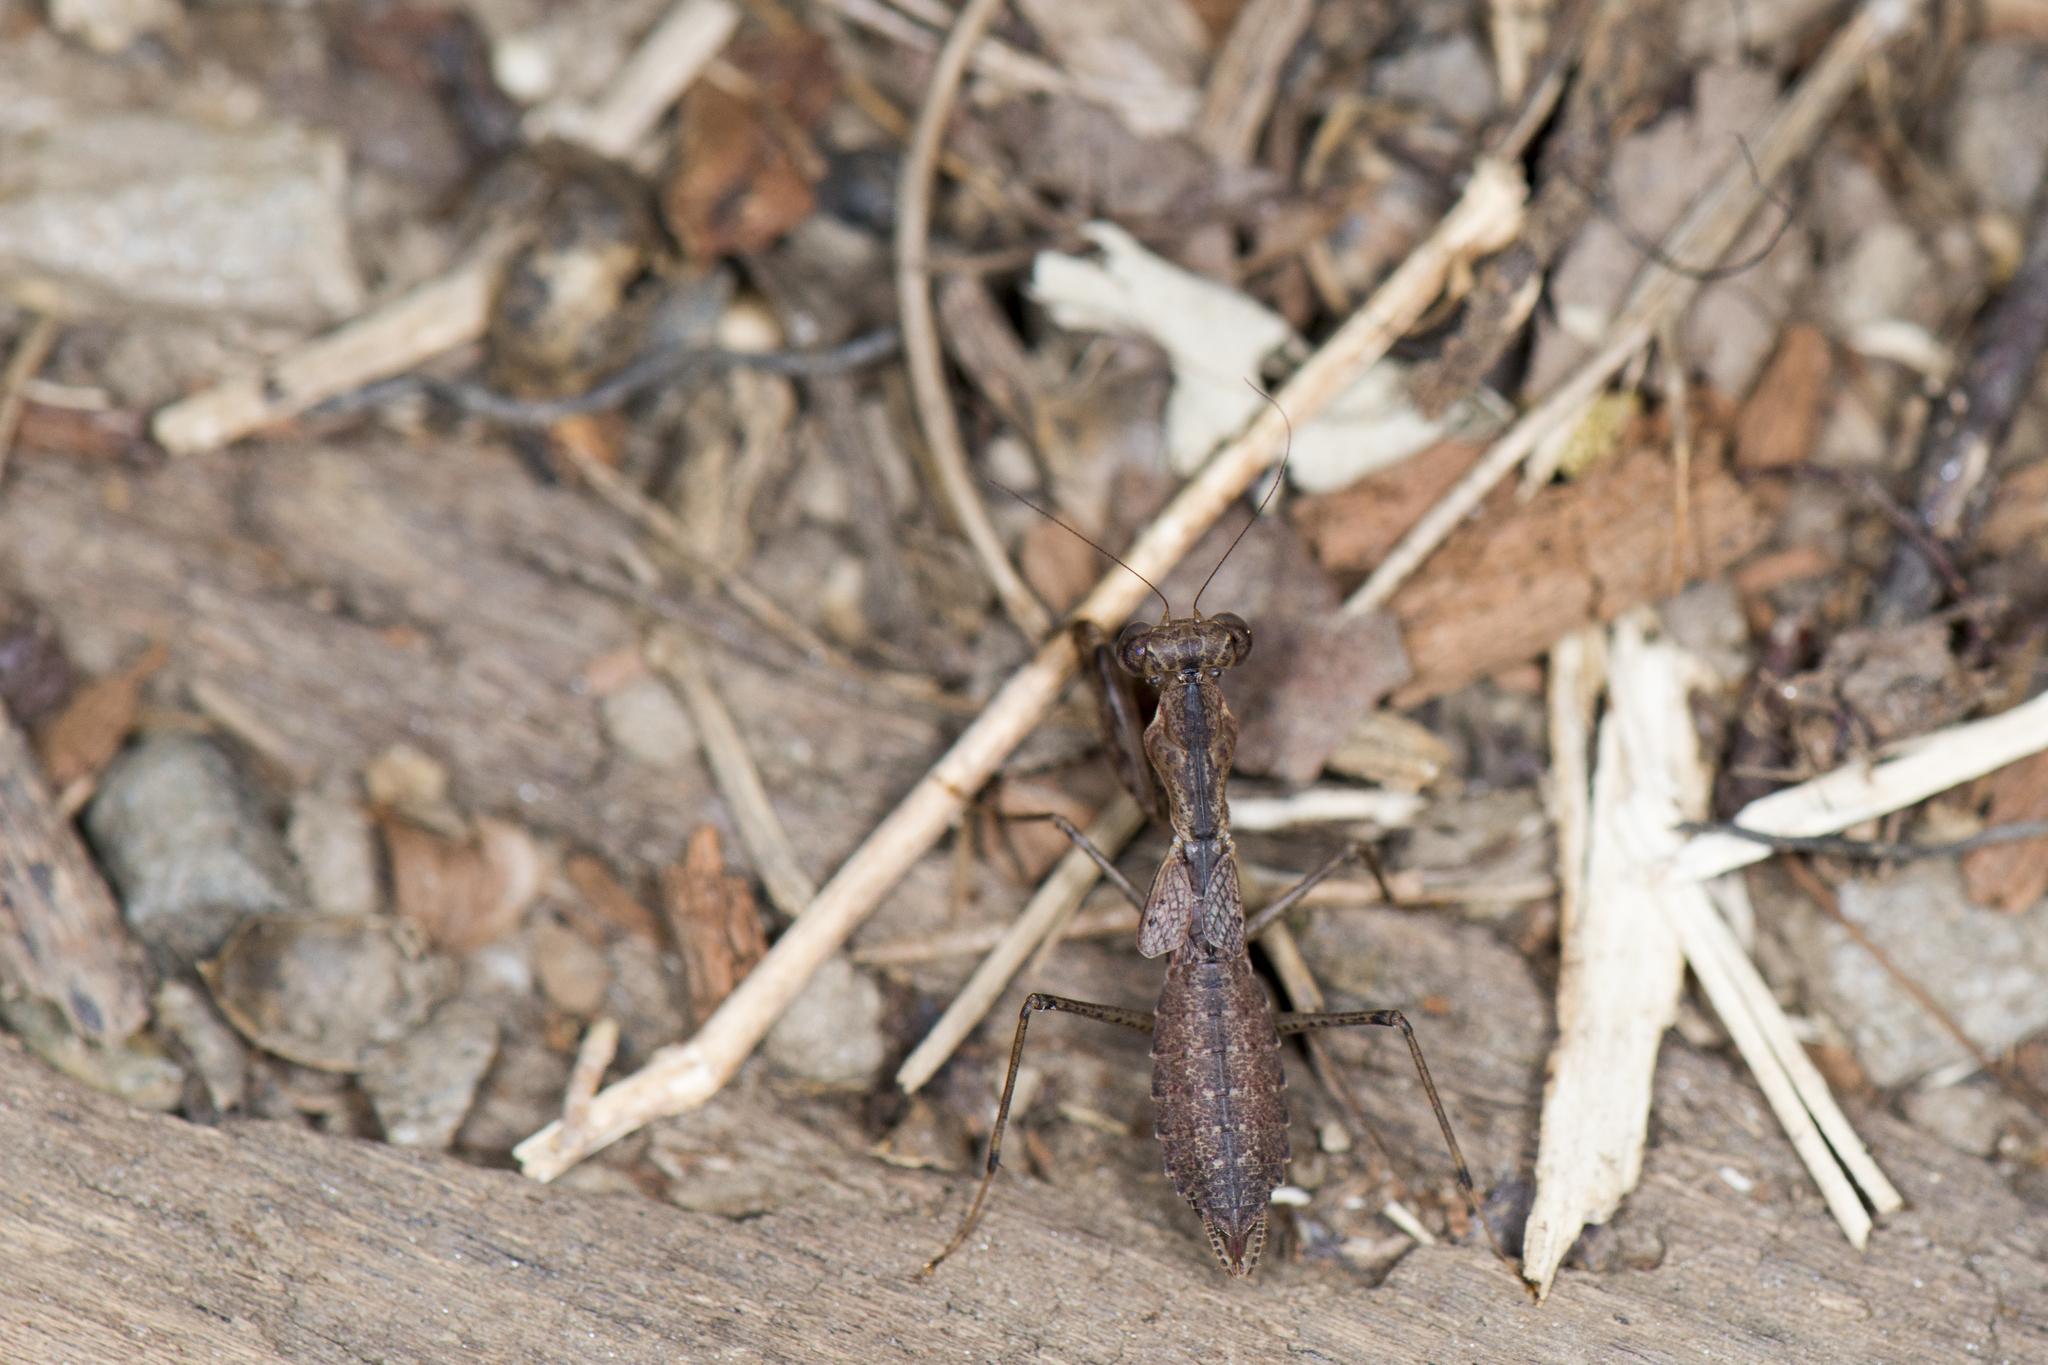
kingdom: Animalia
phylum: Arthropoda
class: Insecta
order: Mantodea
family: Gonypetidae
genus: Amantis
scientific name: Amantis nawai
